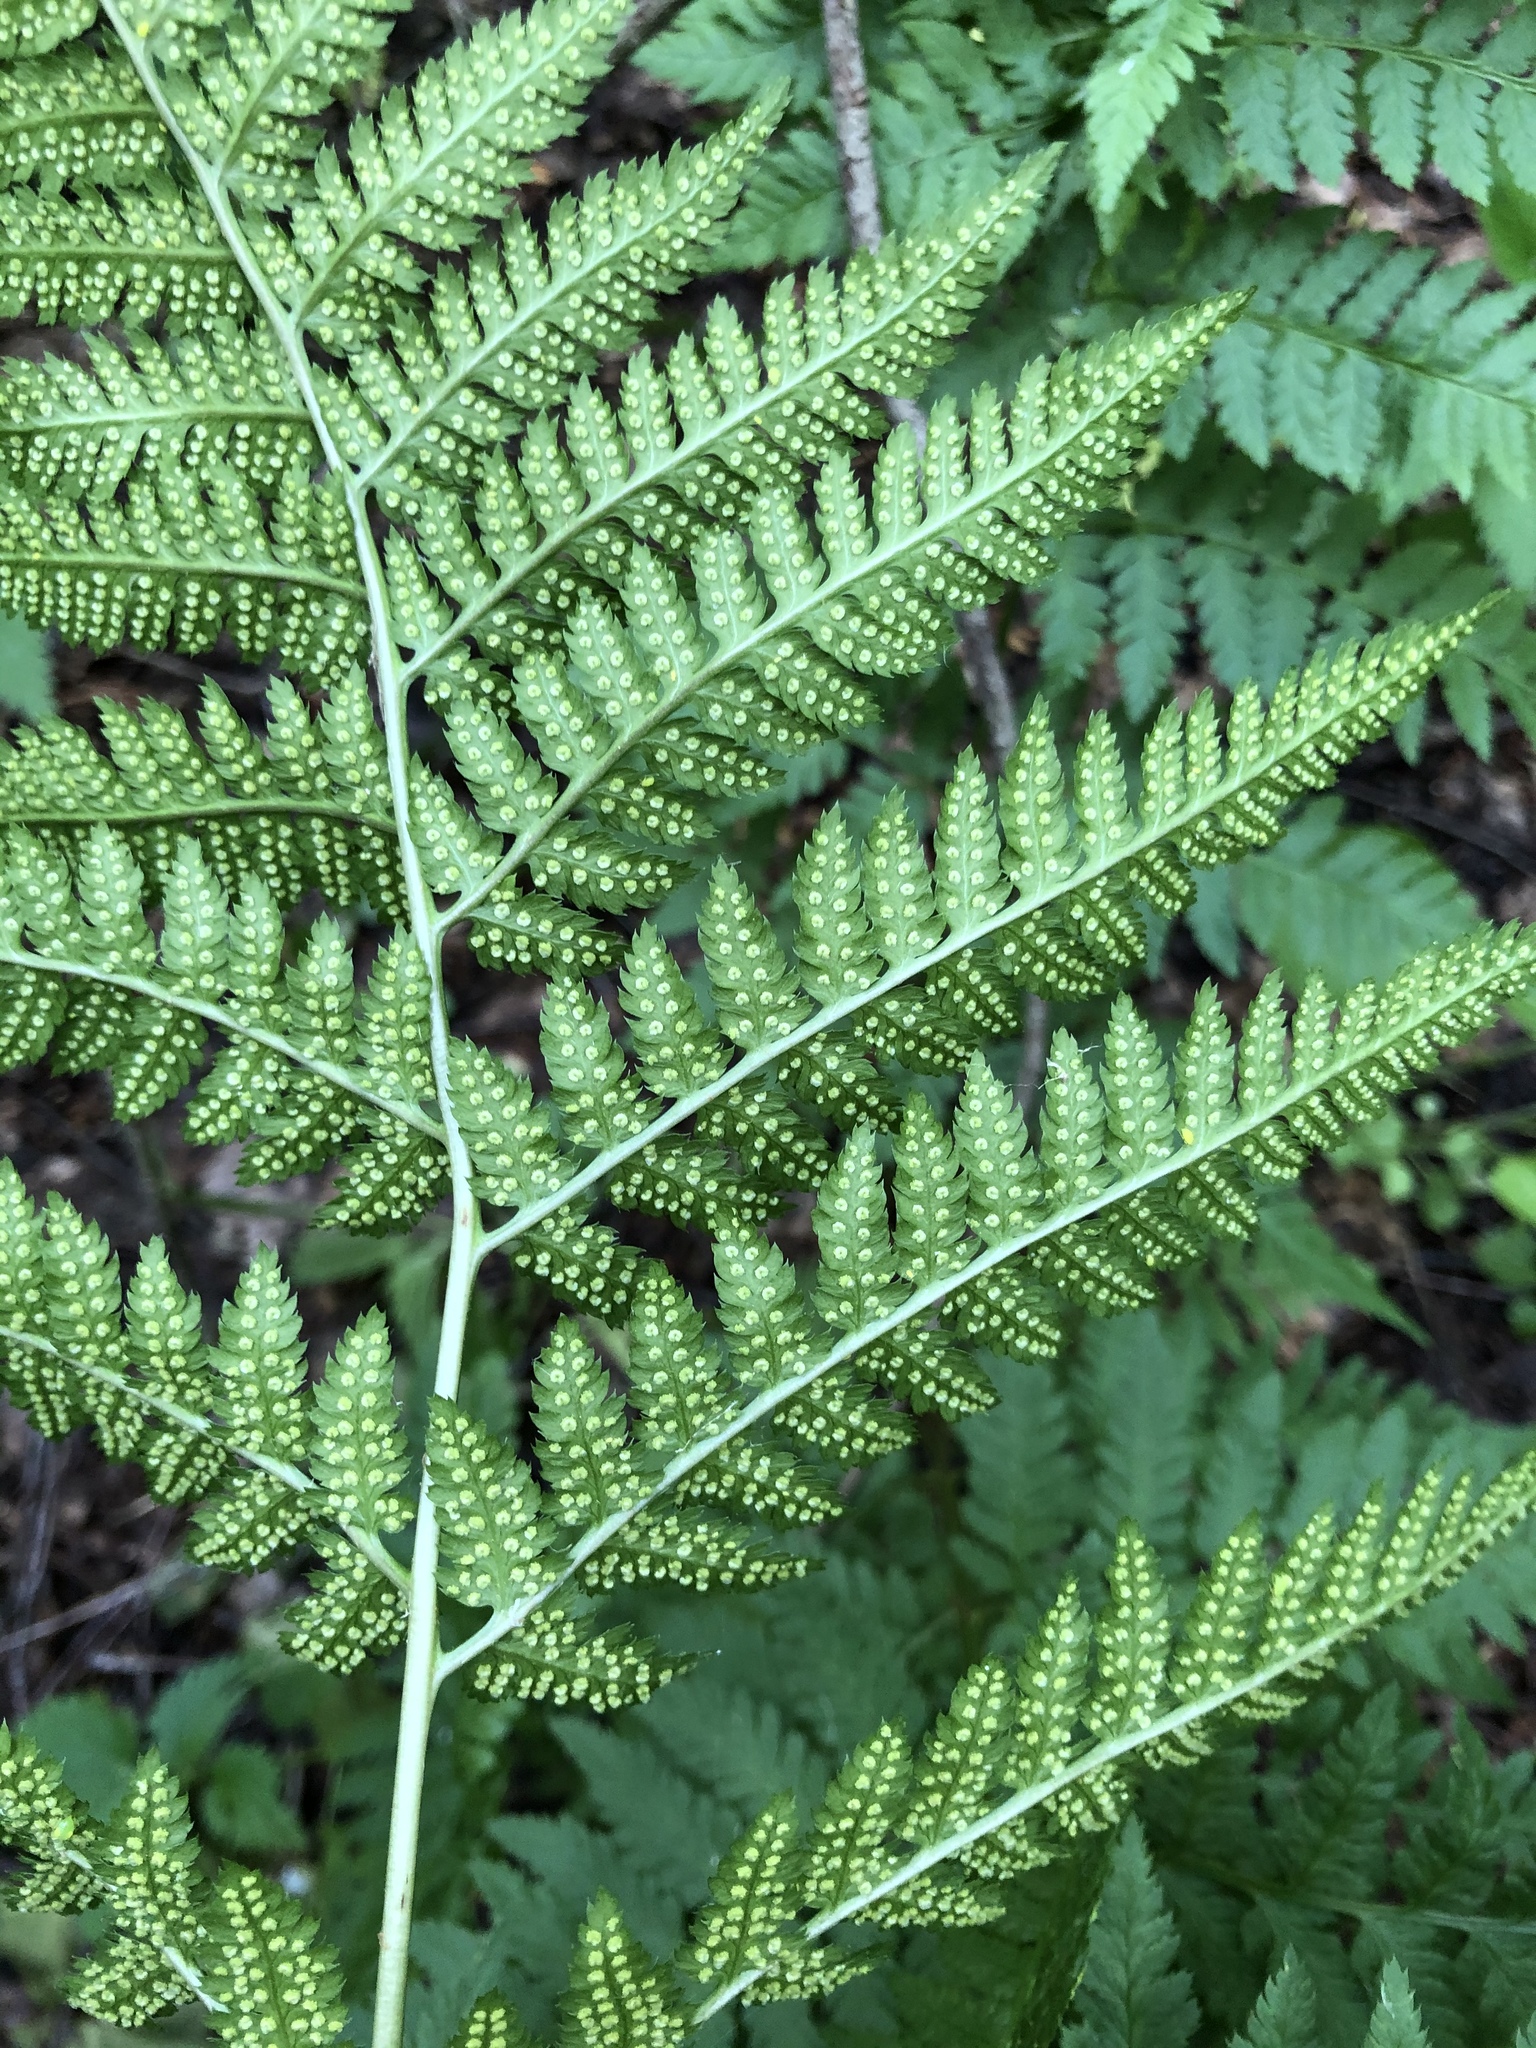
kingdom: Plantae
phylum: Tracheophyta
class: Polypodiopsida
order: Polypodiales
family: Dryopteridaceae
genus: Dryopteris
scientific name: Dryopteris carthusiana
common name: Narrow buckler-fern
